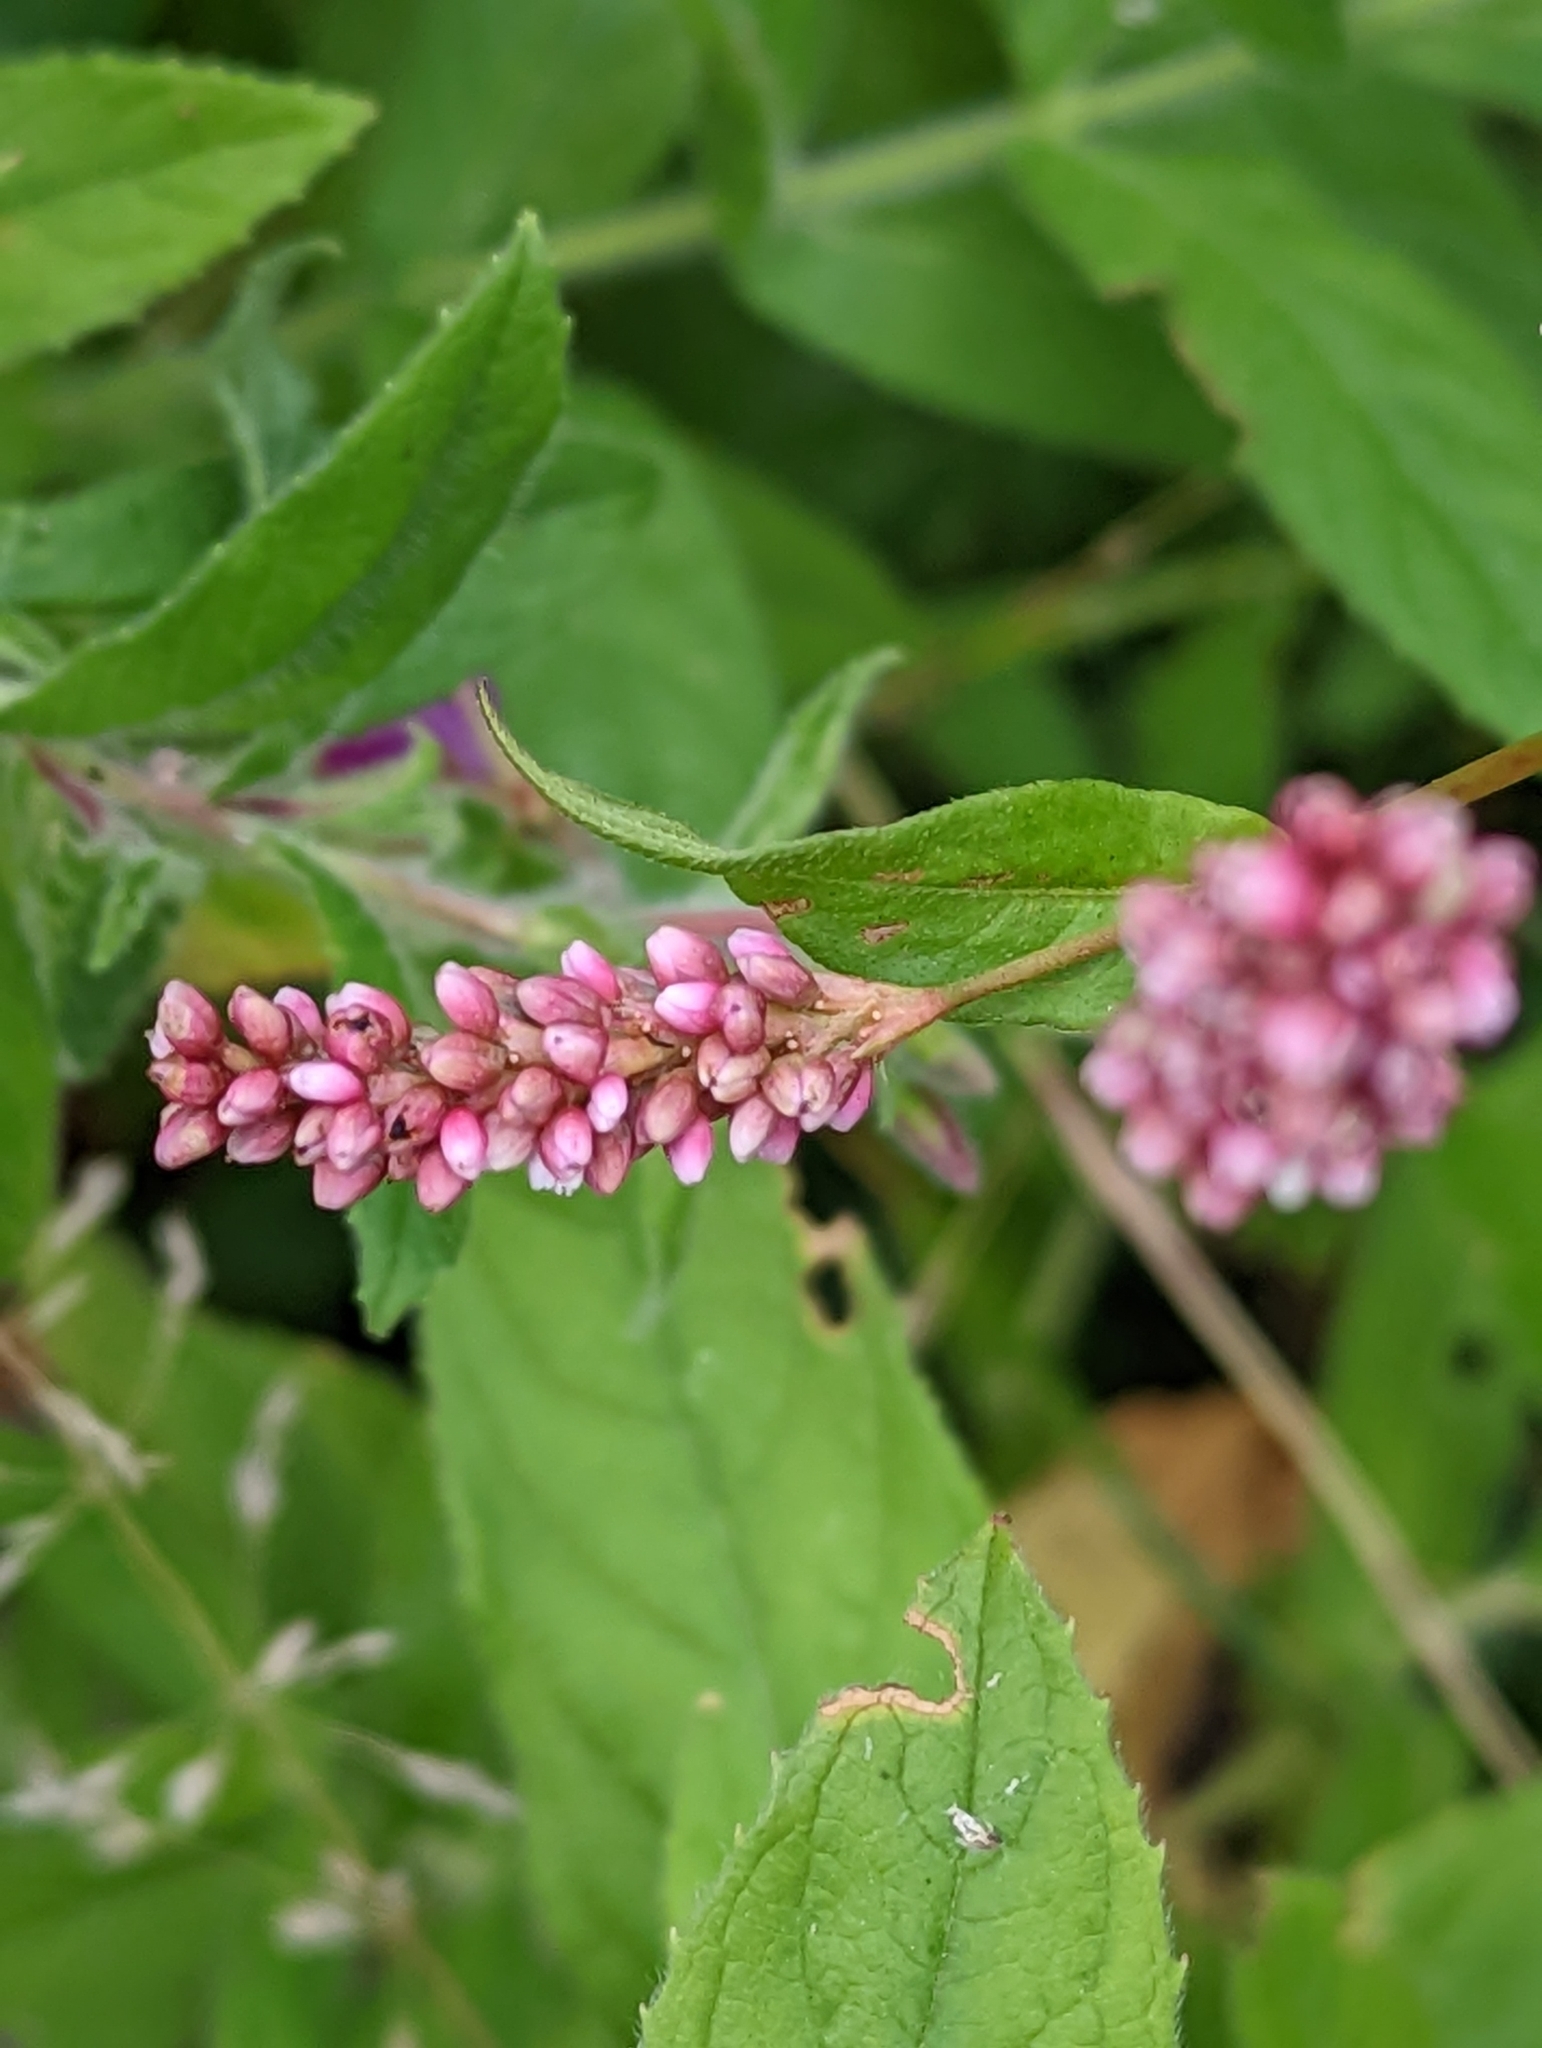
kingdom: Plantae
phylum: Tracheophyta
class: Magnoliopsida
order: Caryophyllales
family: Polygonaceae
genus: Persicaria
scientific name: Persicaria maculosa
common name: Redshank
